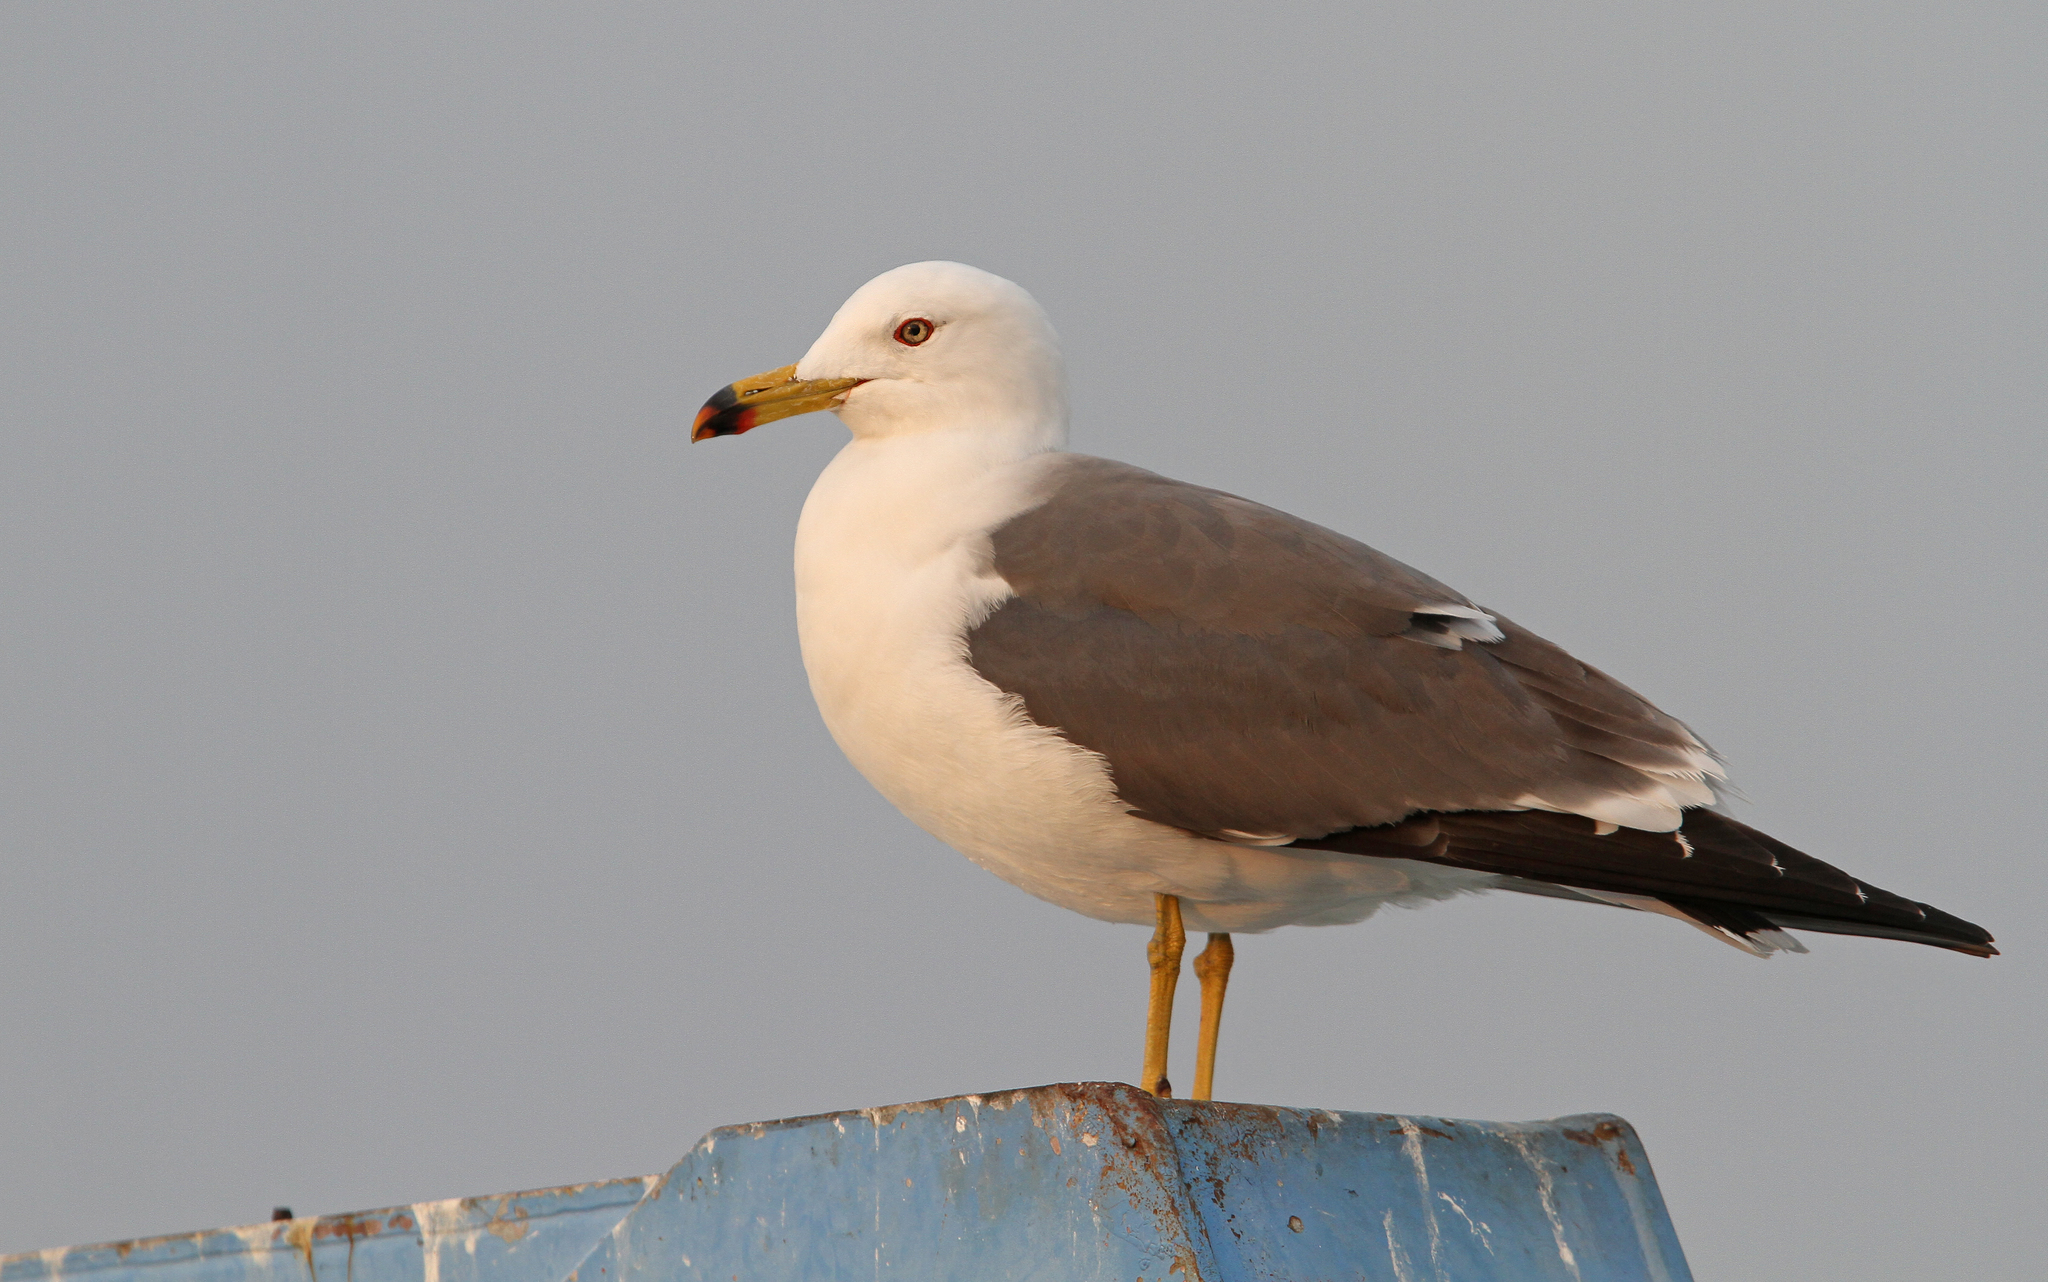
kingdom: Animalia
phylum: Chordata
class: Aves
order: Charadriiformes
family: Laridae
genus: Larus
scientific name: Larus crassirostris
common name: Black-tailed gull
